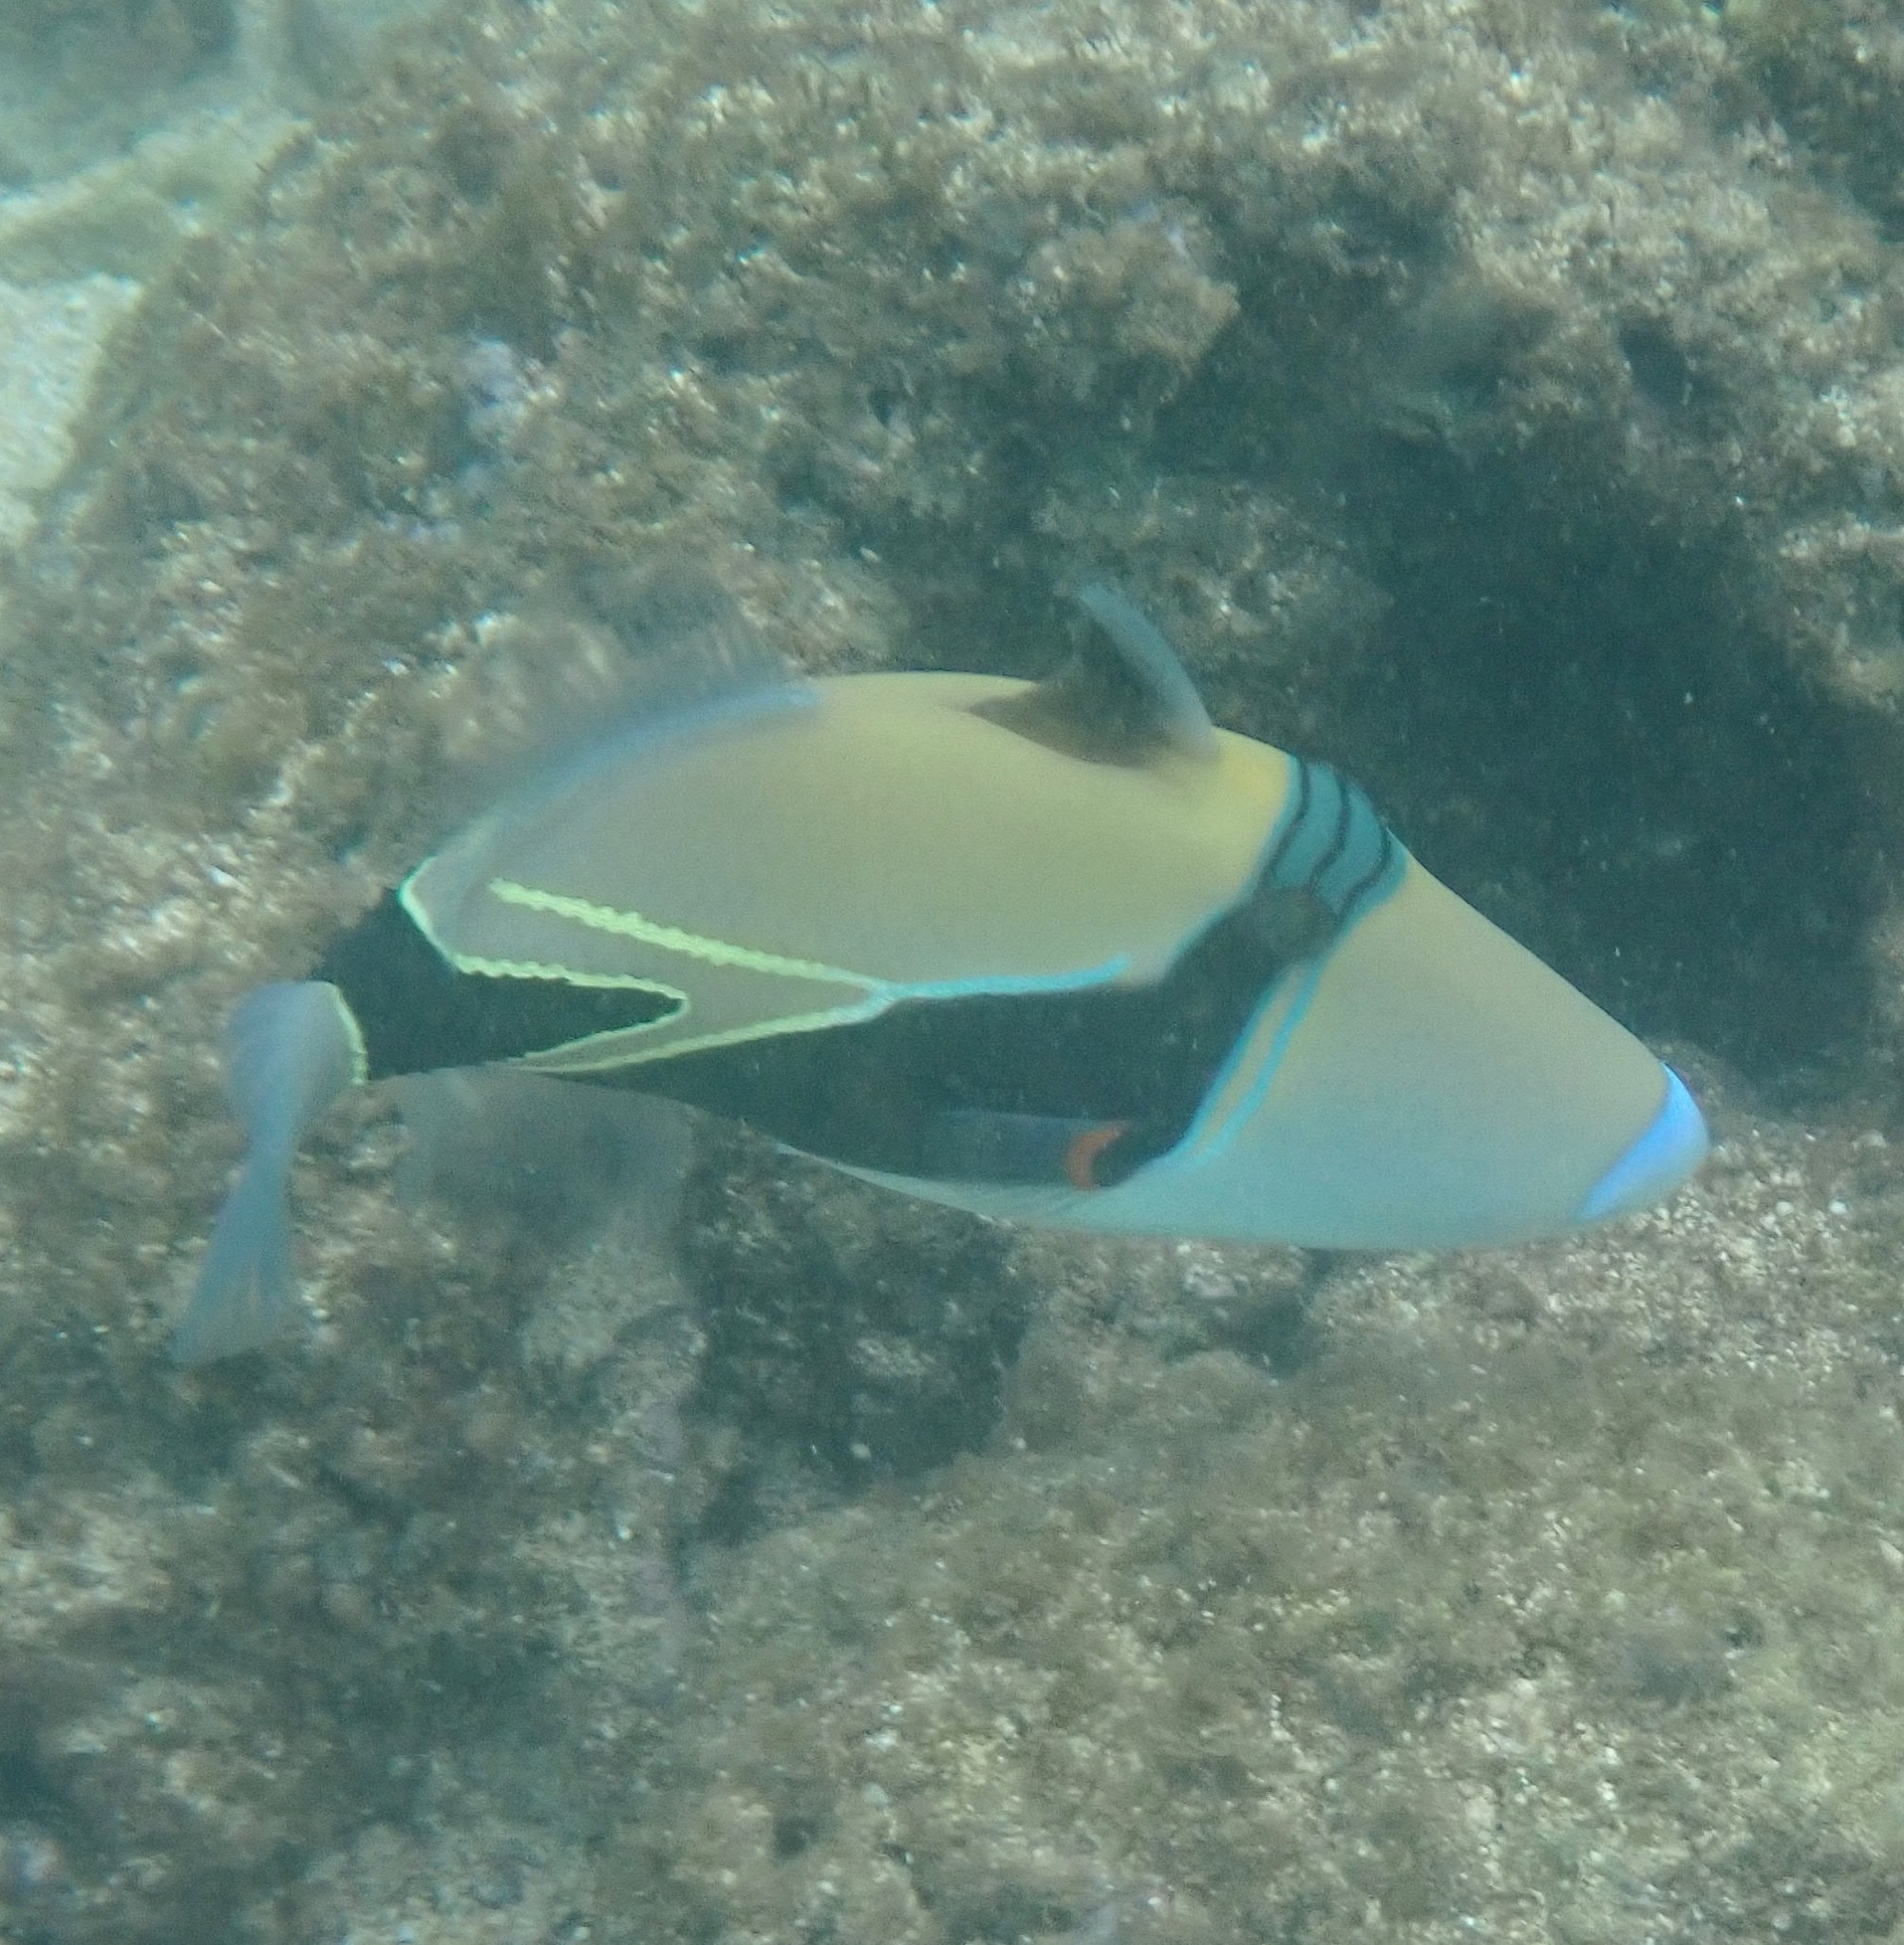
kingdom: Animalia
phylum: Chordata
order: Tetraodontiformes
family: Balistidae
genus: Rhinecanthus
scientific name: Rhinecanthus rectangulus
